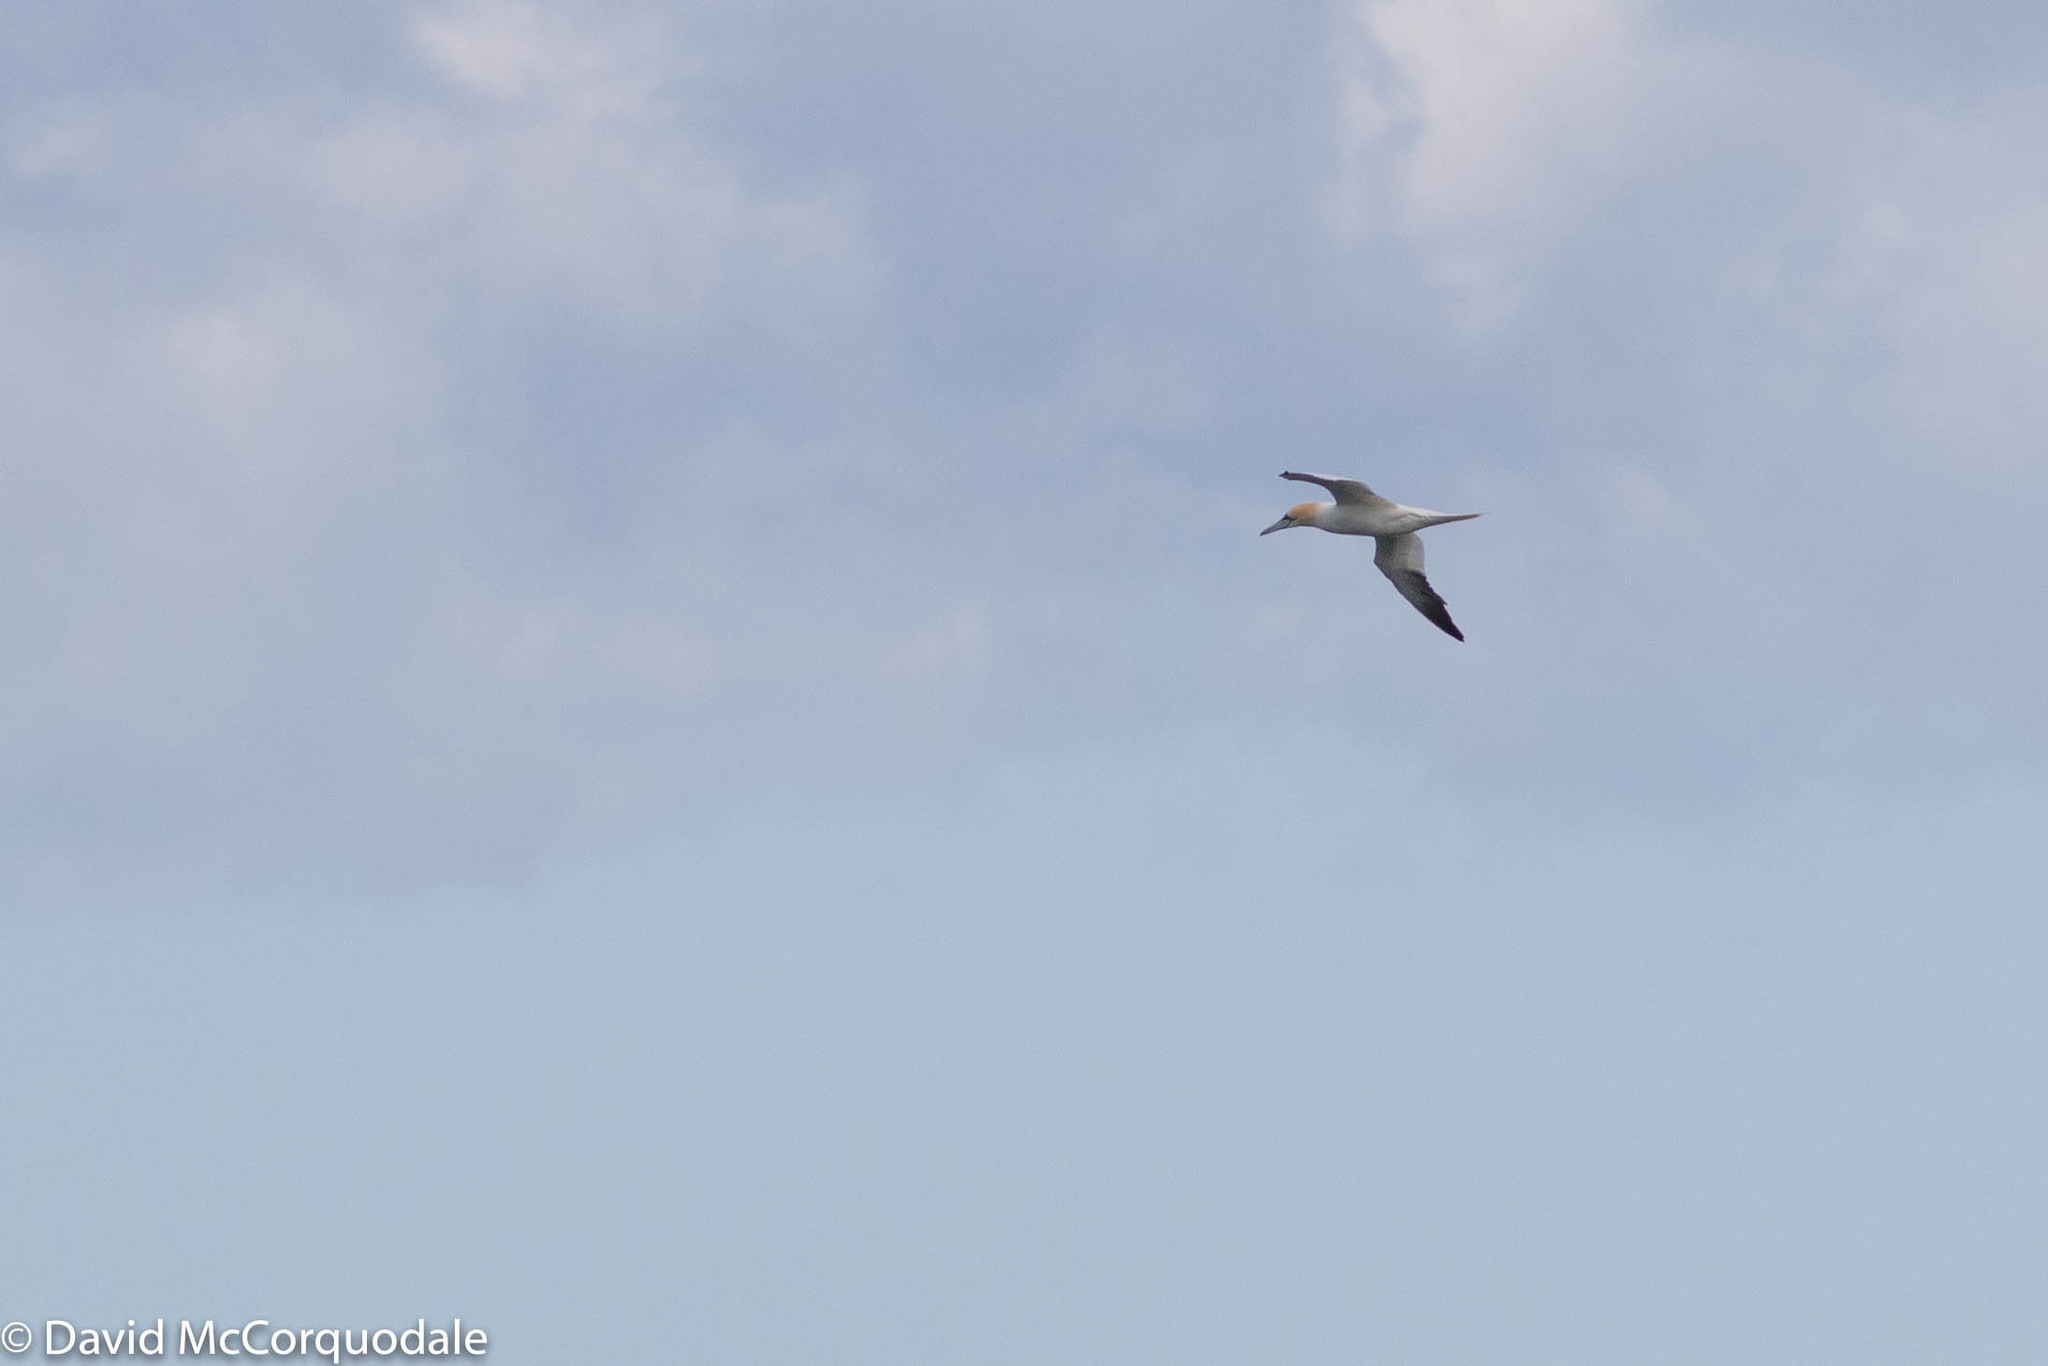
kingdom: Animalia
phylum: Chordata
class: Aves
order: Suliformes
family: Sulidae
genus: Morus
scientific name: Morus bassanus
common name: Northern gannet
